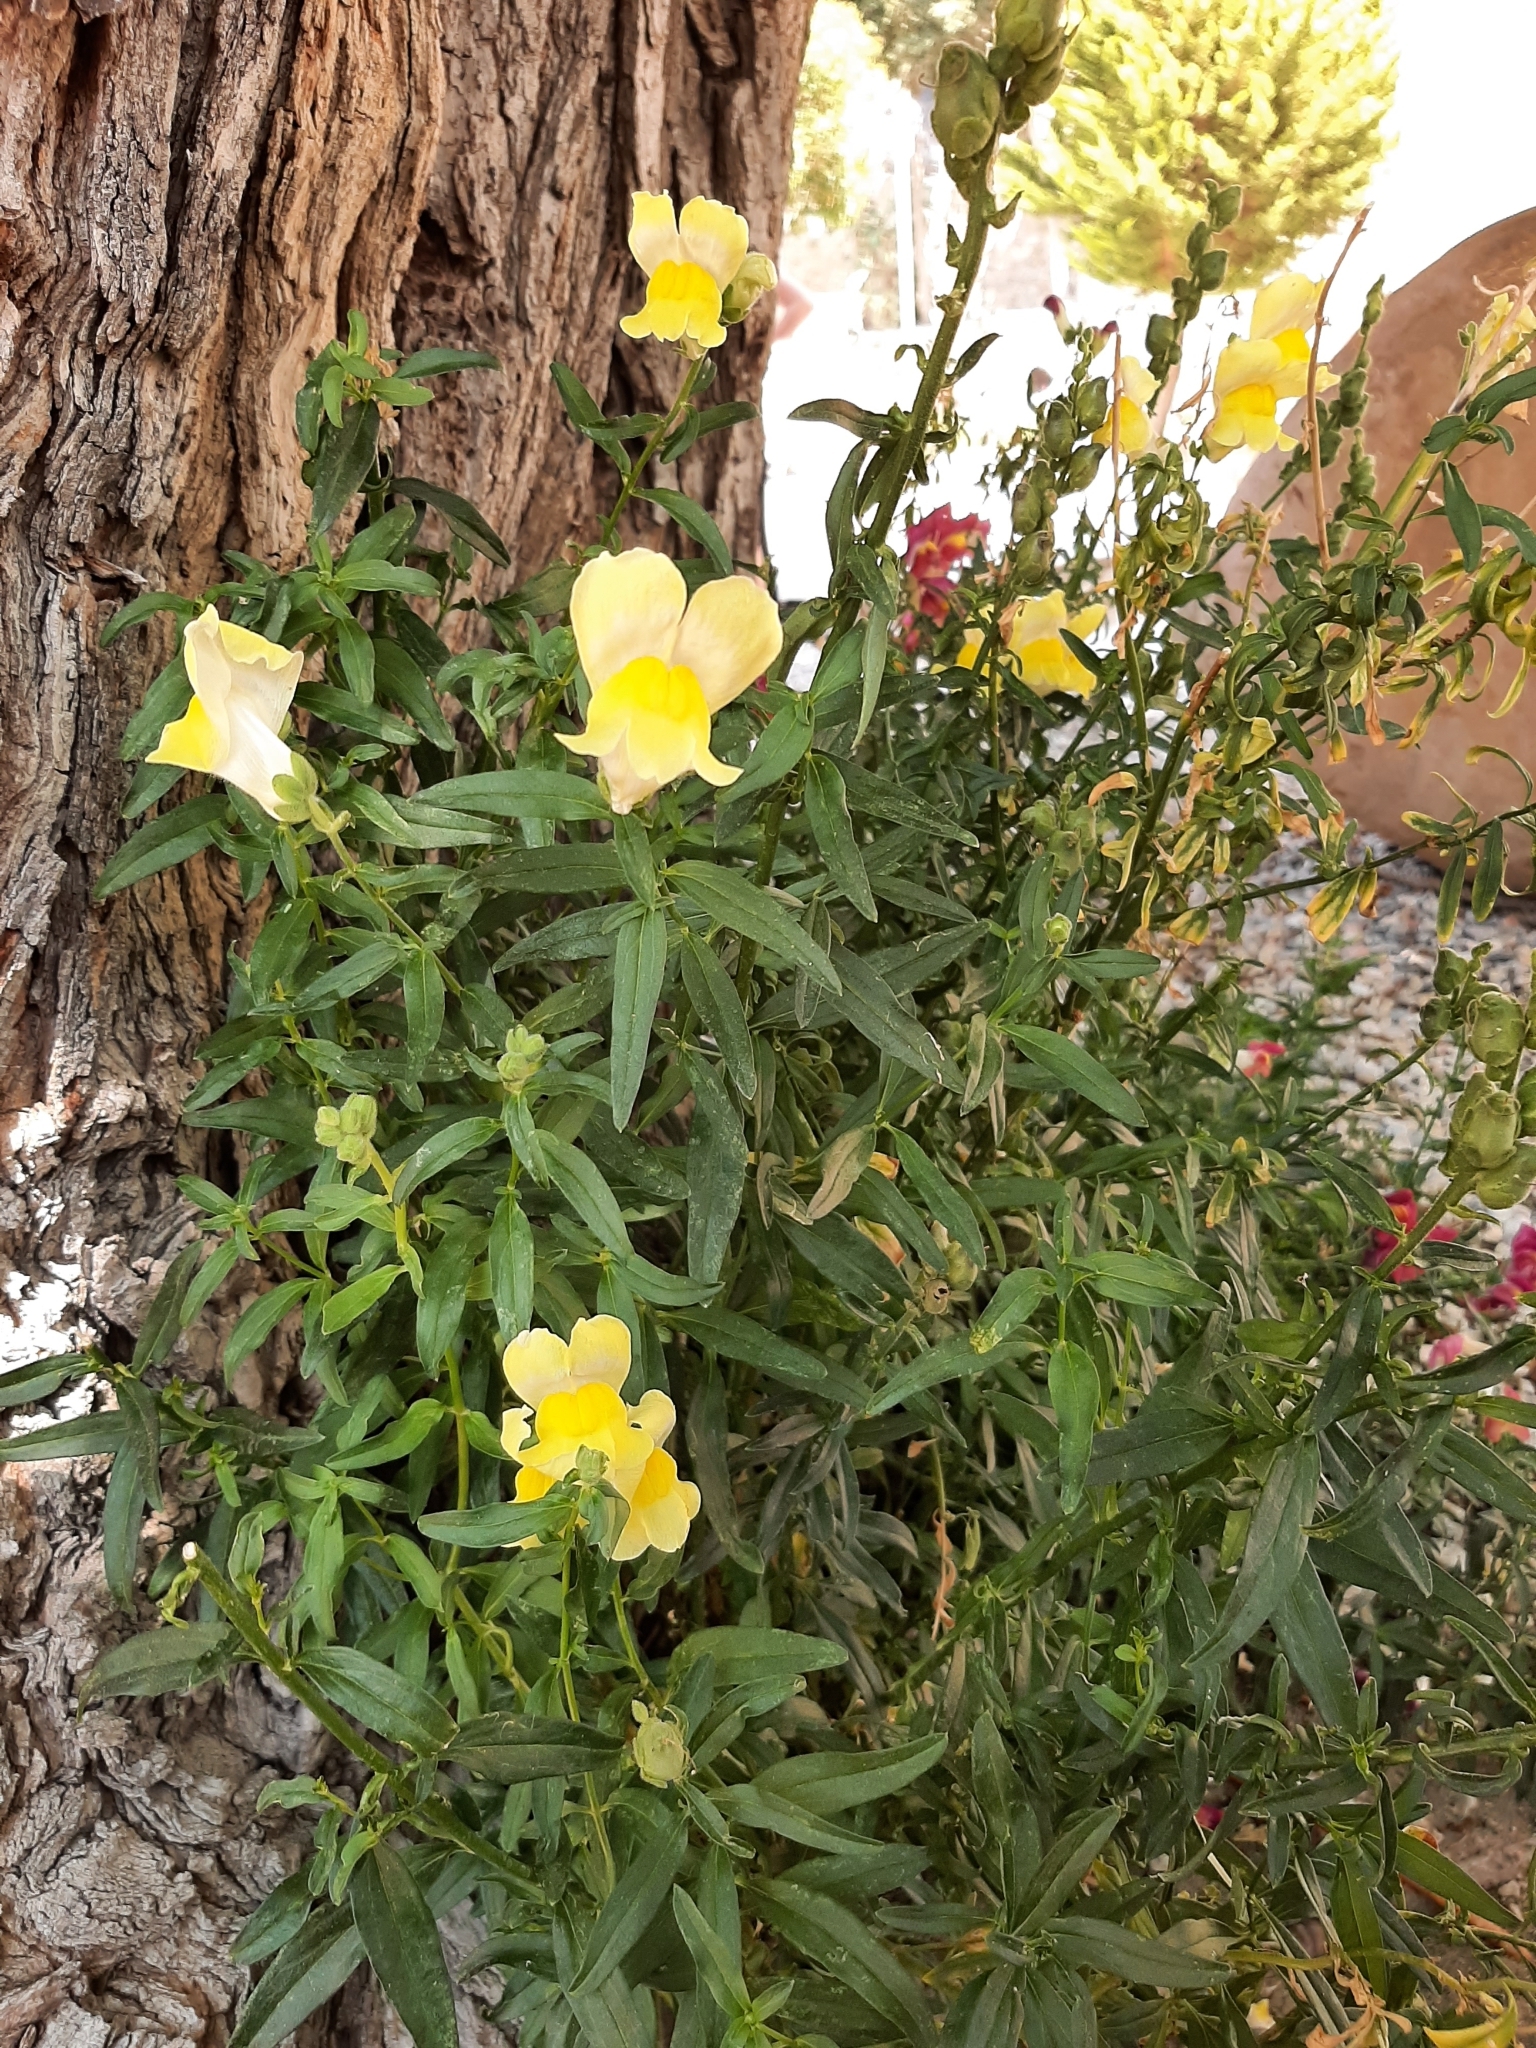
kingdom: Plantae
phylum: Tracheophyta
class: Magnoliopsida
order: Lamiales
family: Plantaginaceae
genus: Antirrhinum
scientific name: Antirrhinum majus
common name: Snapdragon
